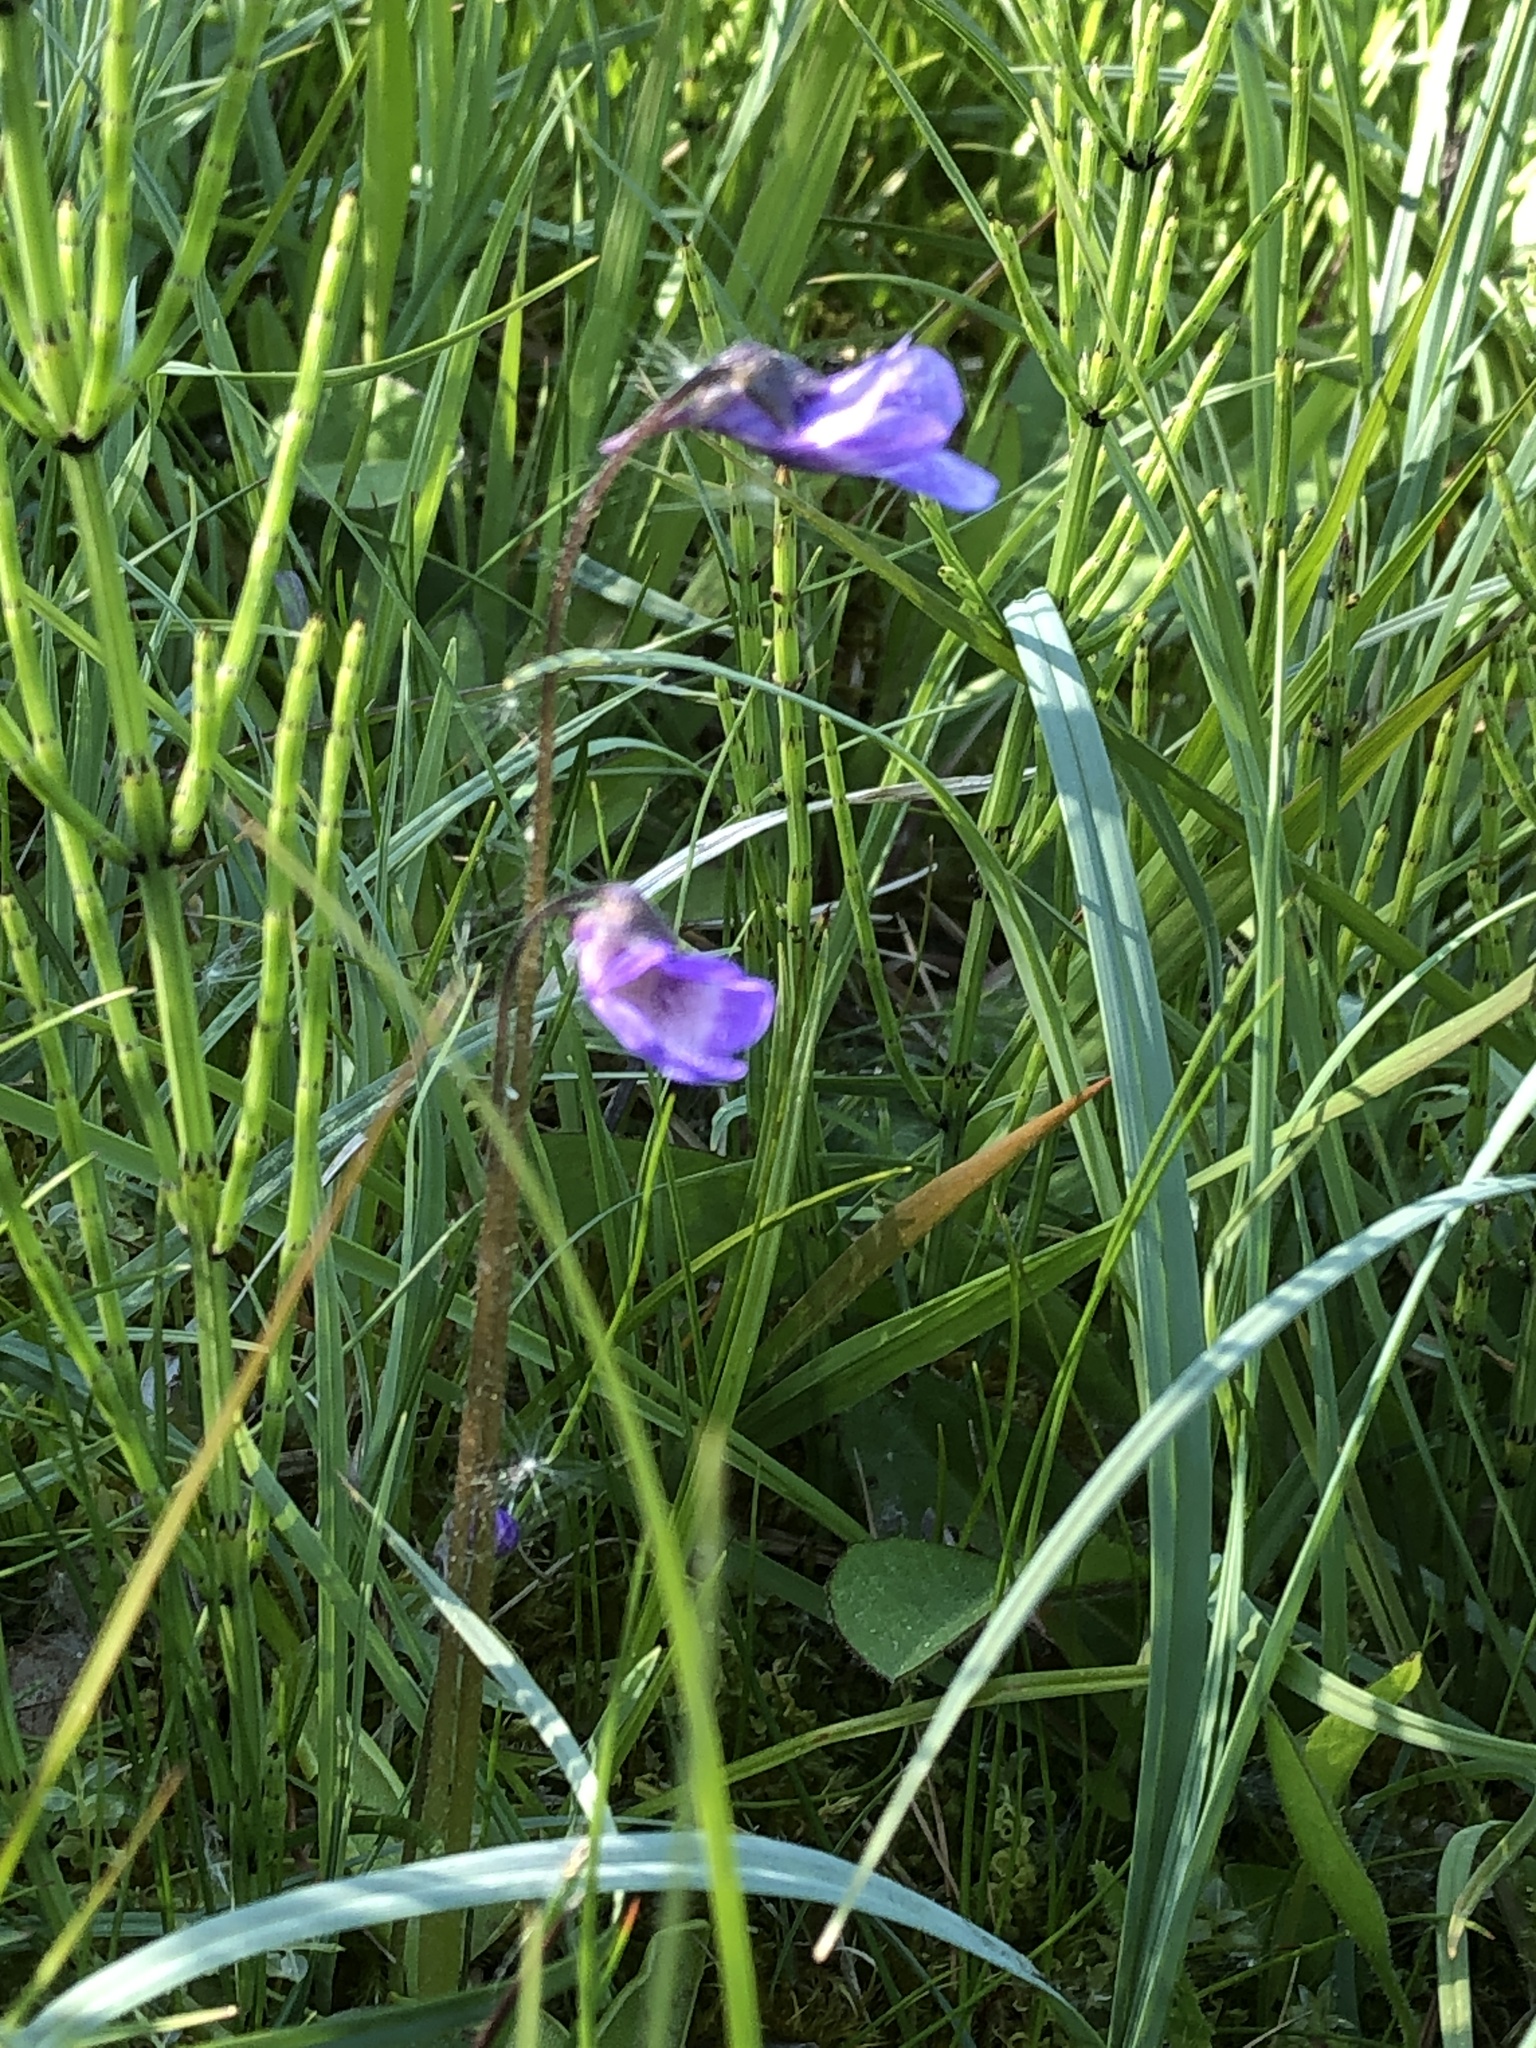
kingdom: Plantae
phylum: Tracheophyta
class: Magnoliopsida
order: Lamiales
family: Lentibulariaceae
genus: Pinguicula
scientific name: Pinguicula vulgaris
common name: Common butterwort
